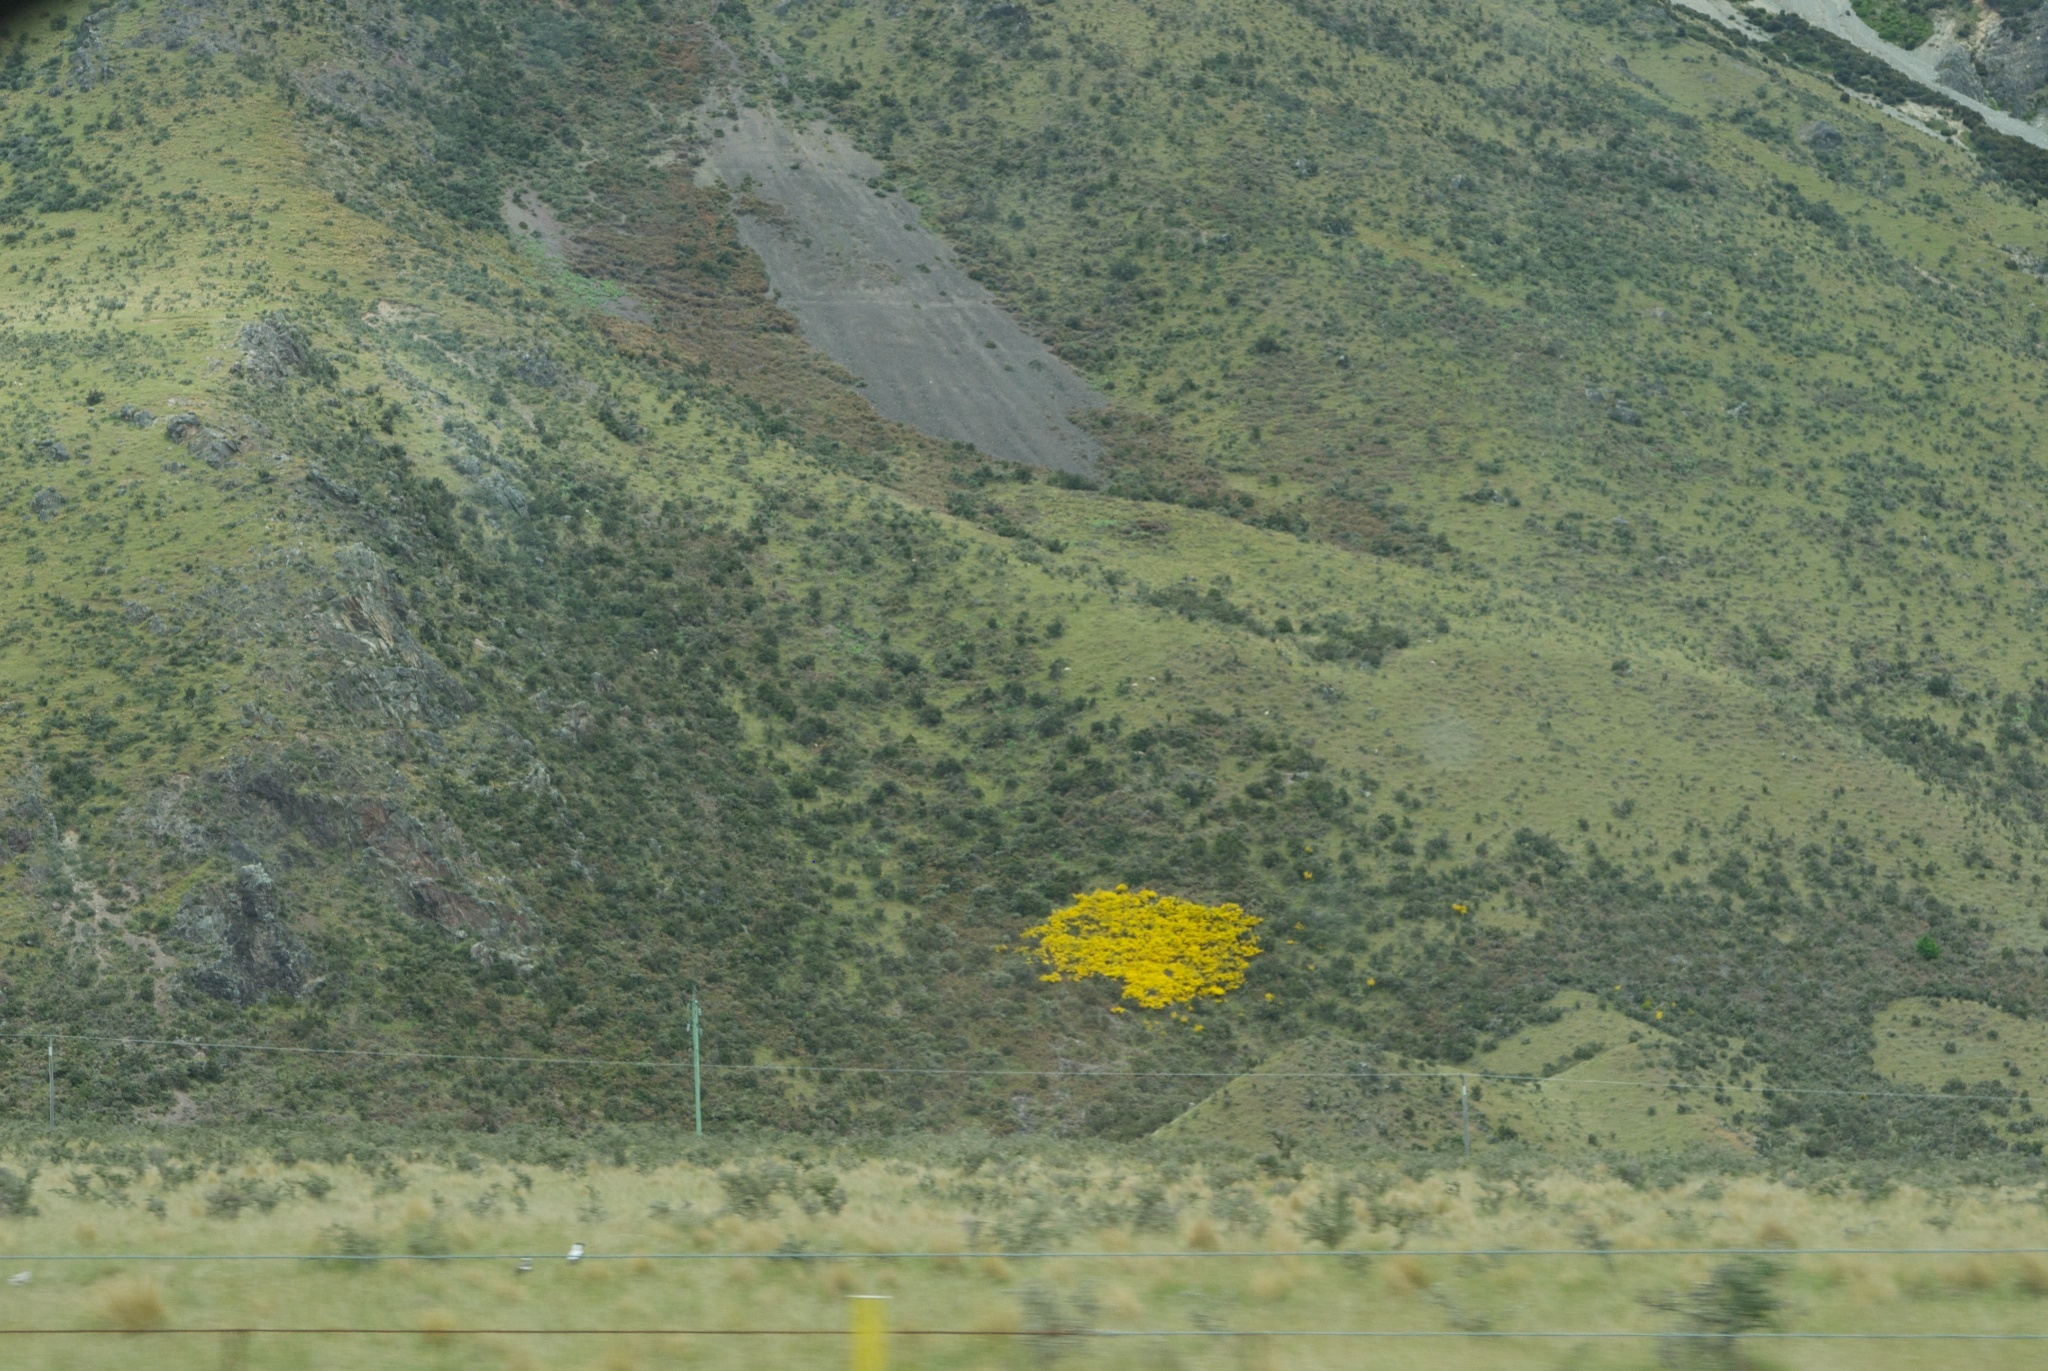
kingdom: Plantae
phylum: Tracheophyta
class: Magnoliopsida
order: Fabales
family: Fabaceae
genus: Cytisus
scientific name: Cytisus scoparius
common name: Scotch broom
